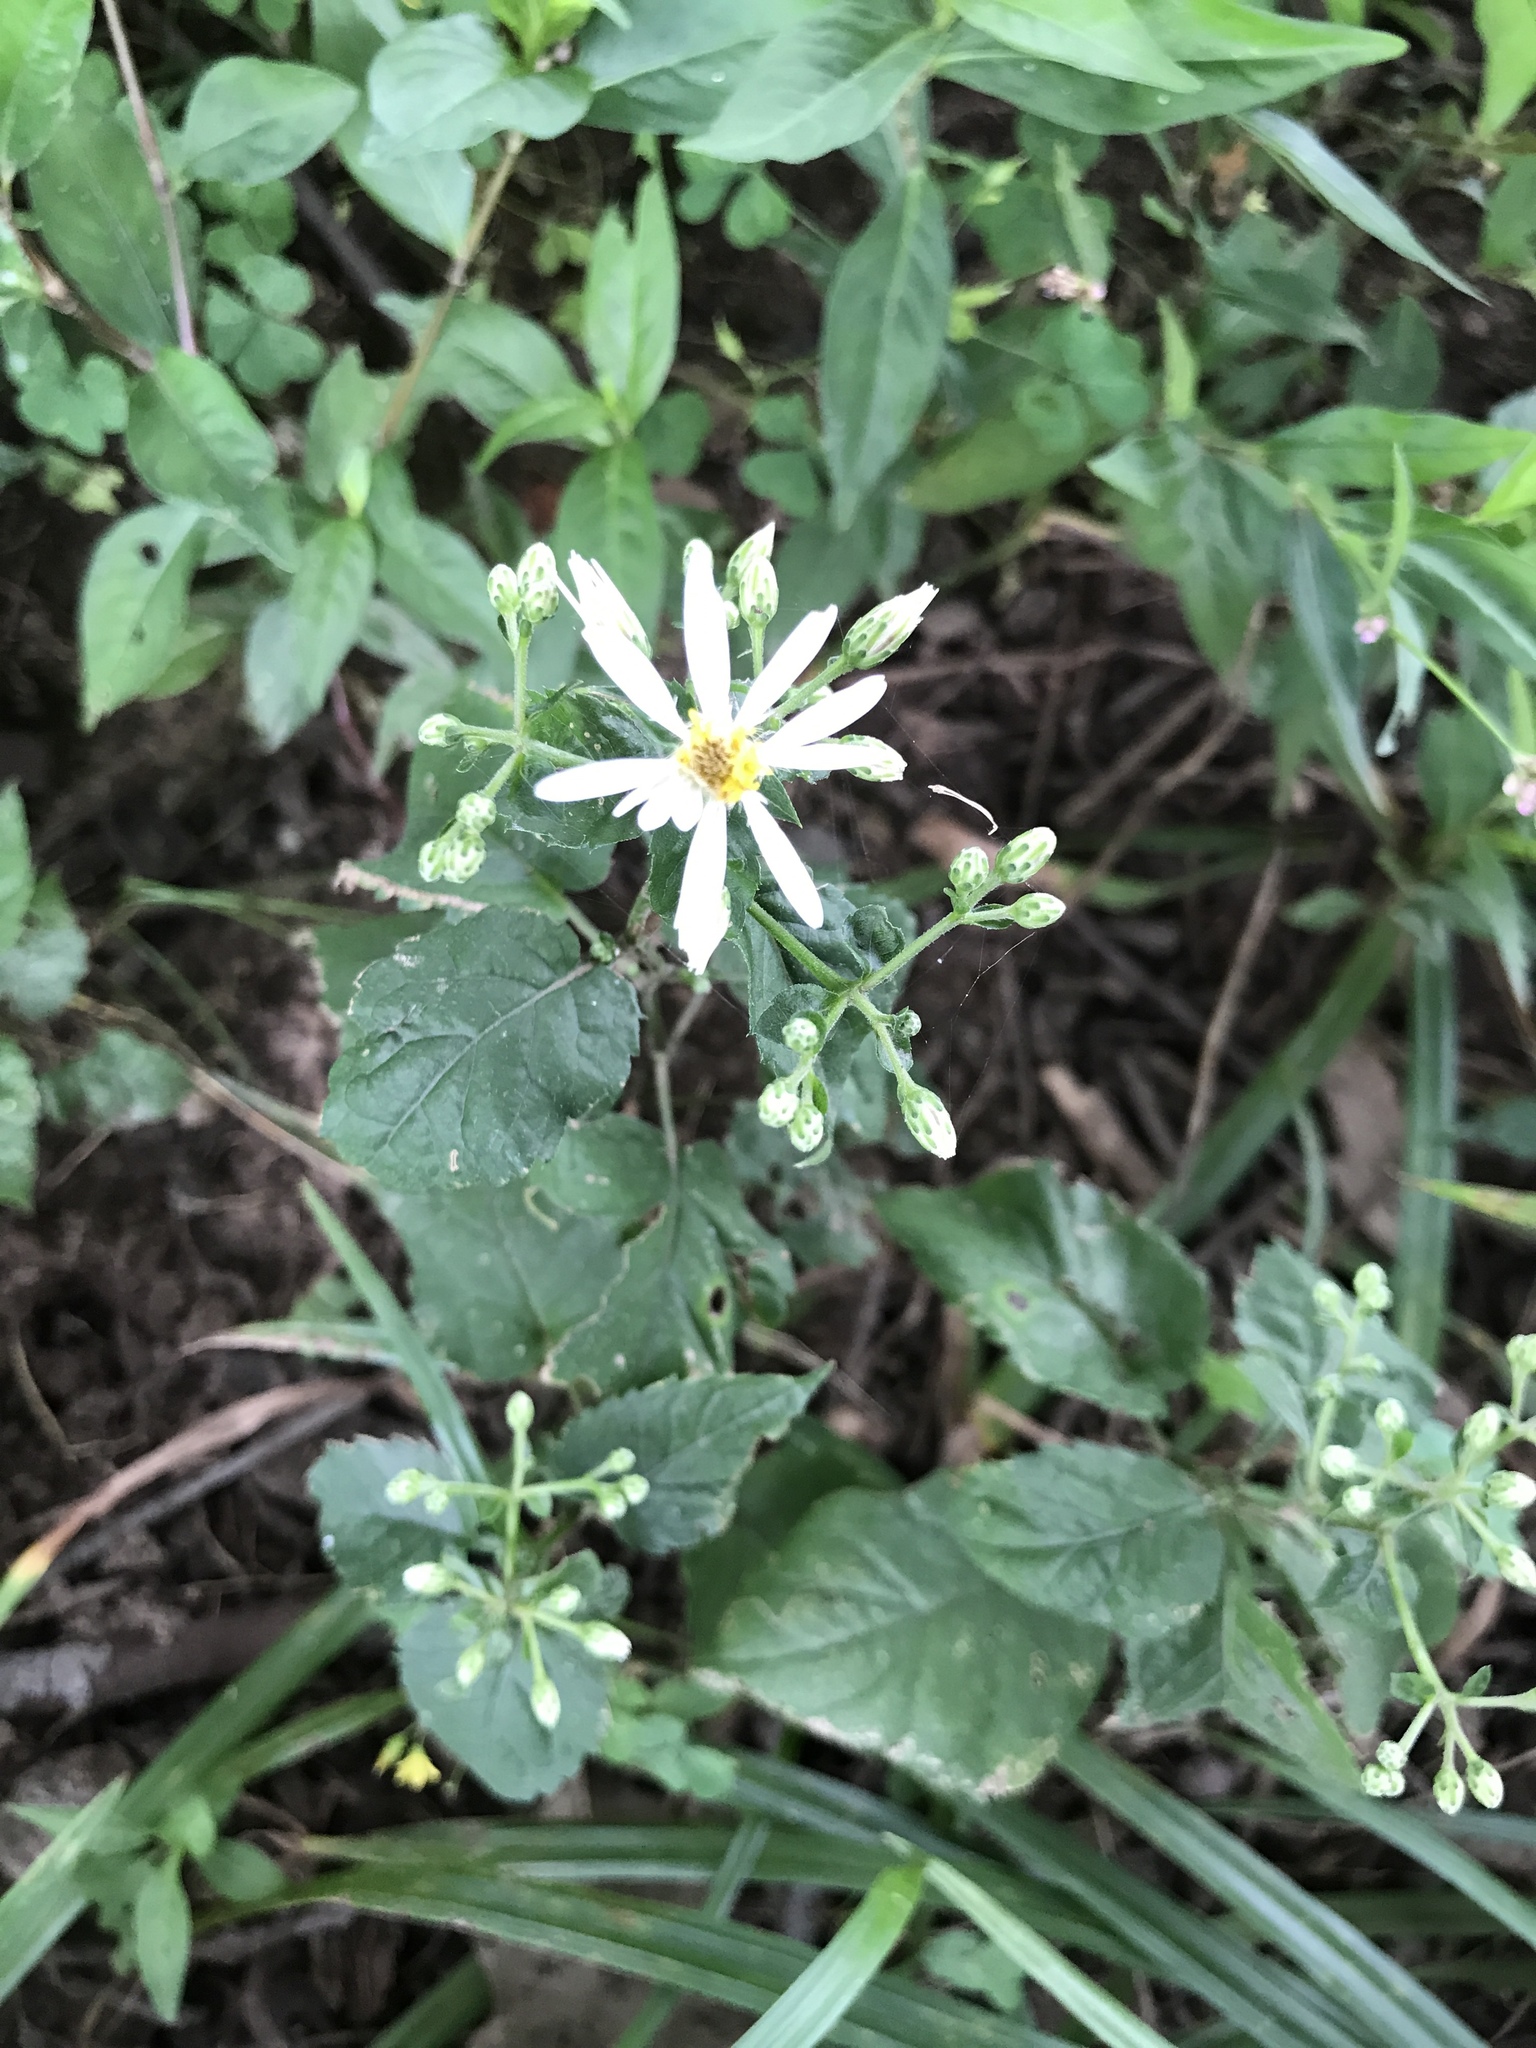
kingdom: Plantae
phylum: Tracheophyta
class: Magnoliopsida
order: Asterales
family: Asteraceae
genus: Eurybia
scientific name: Eurybia divaricata
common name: White wood aster
